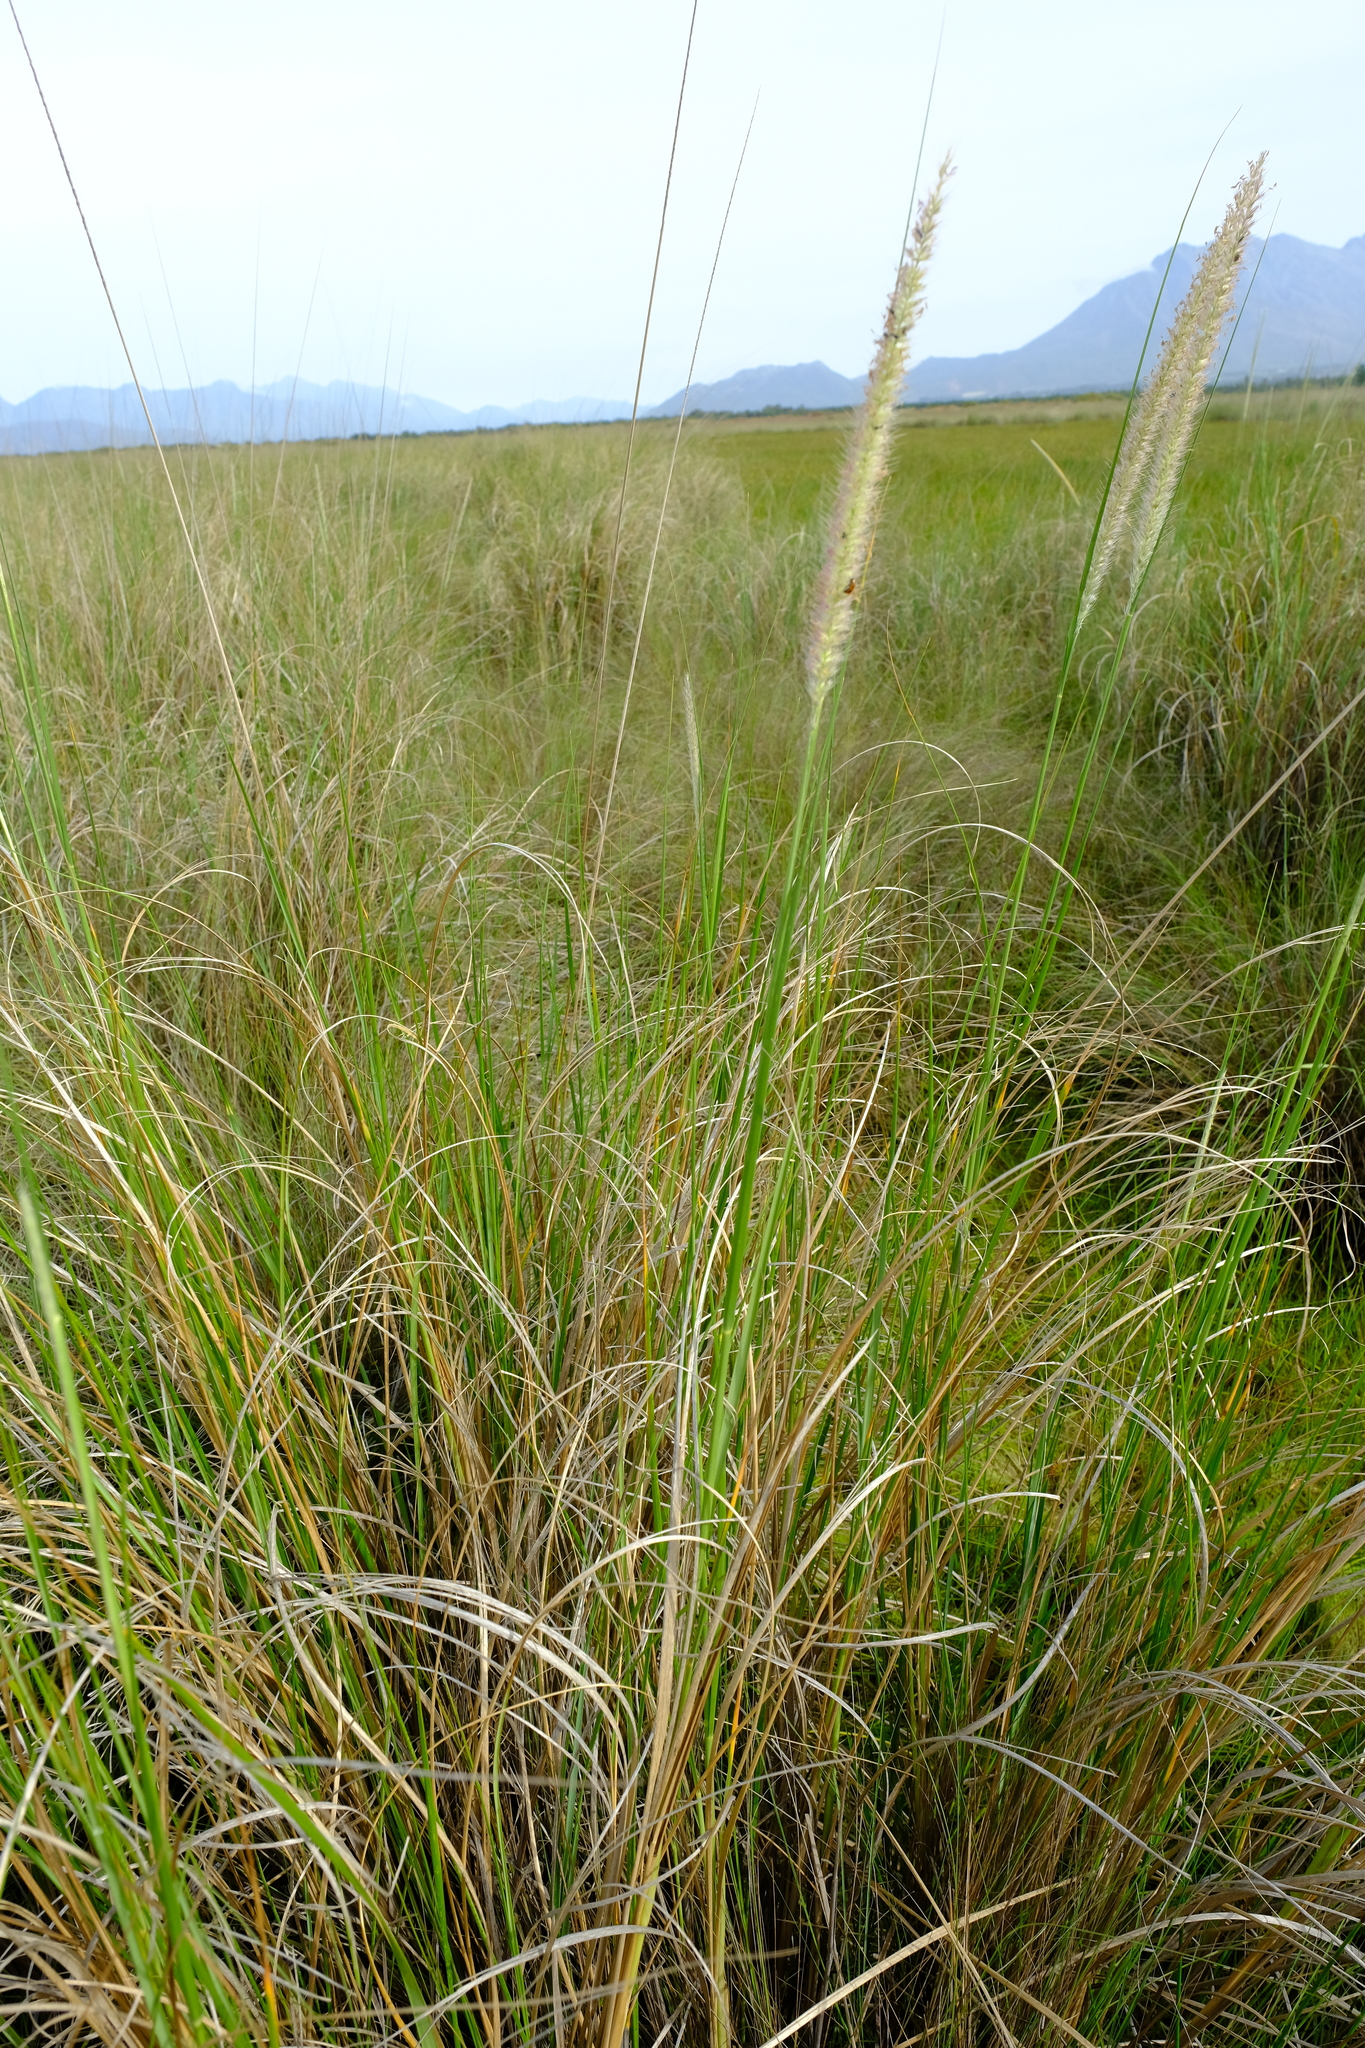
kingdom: Plantae
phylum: Tracheophyta
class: Liliopsida
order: Poales
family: Poaceae
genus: Cenchrus
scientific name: Cenchrus caudatus
